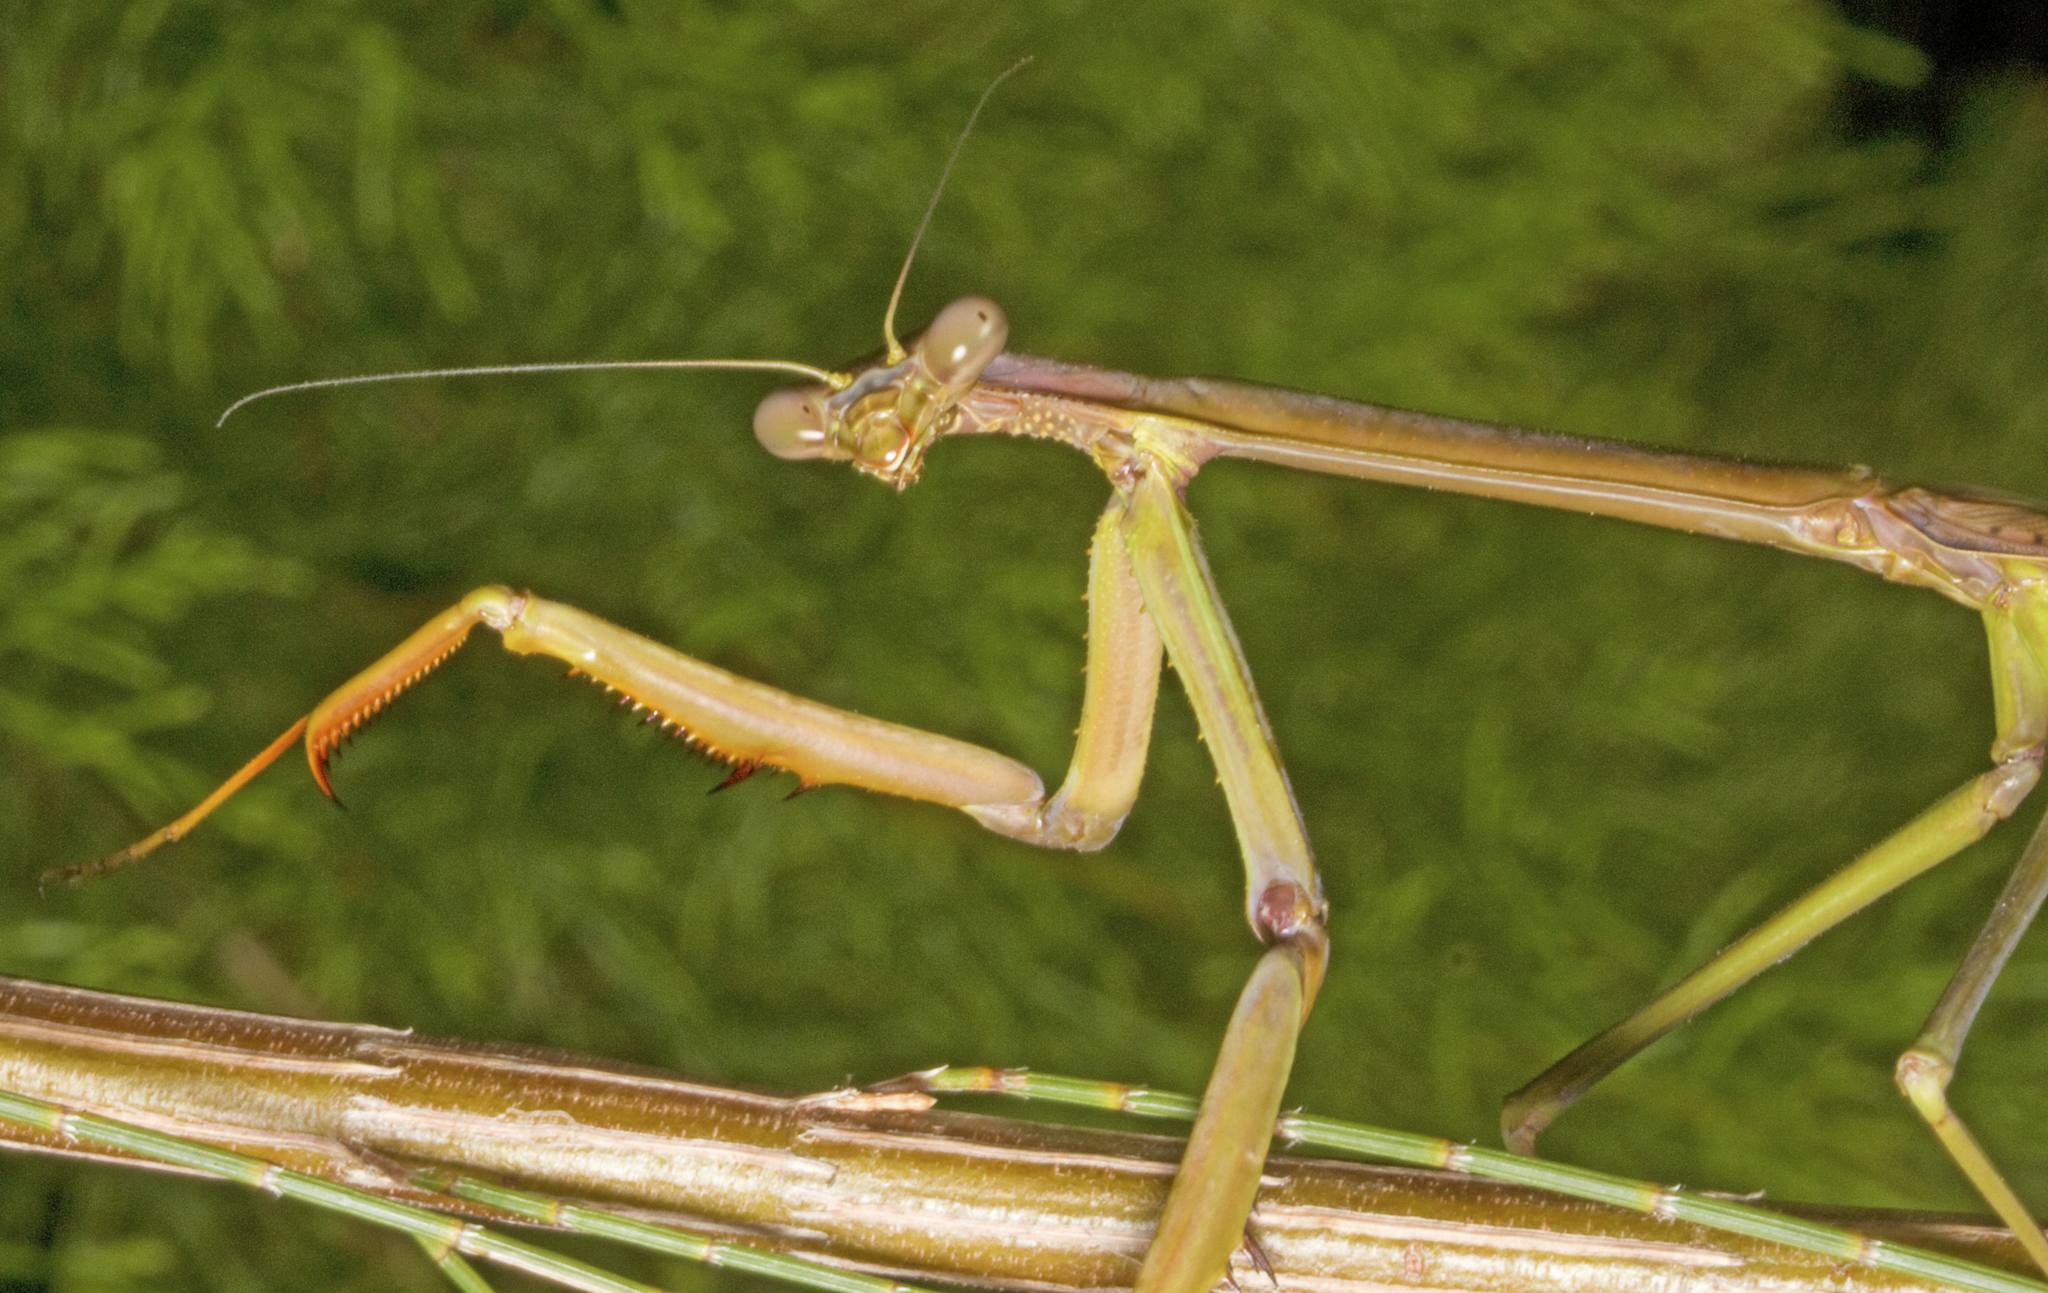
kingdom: Animalia
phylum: Arthropoda
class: Insecta
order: Mantodea
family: Mantidae
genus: Archimantis
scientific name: Archimantis latistyla
